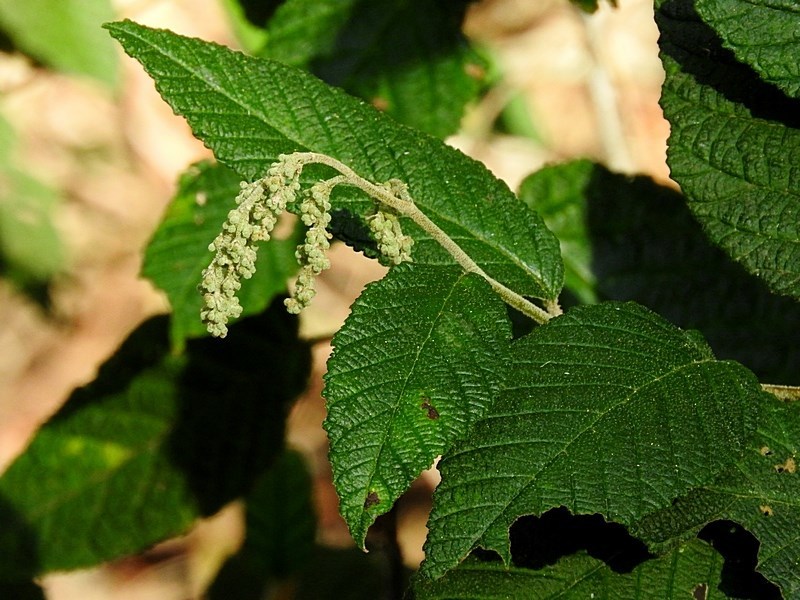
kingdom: Plantae
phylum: Tracheophyta
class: Magnoliopsida
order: Rosales
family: Rhamnaceae
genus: Pomaderris
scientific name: Pomaderris aspera
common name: Hazel pomaderris
